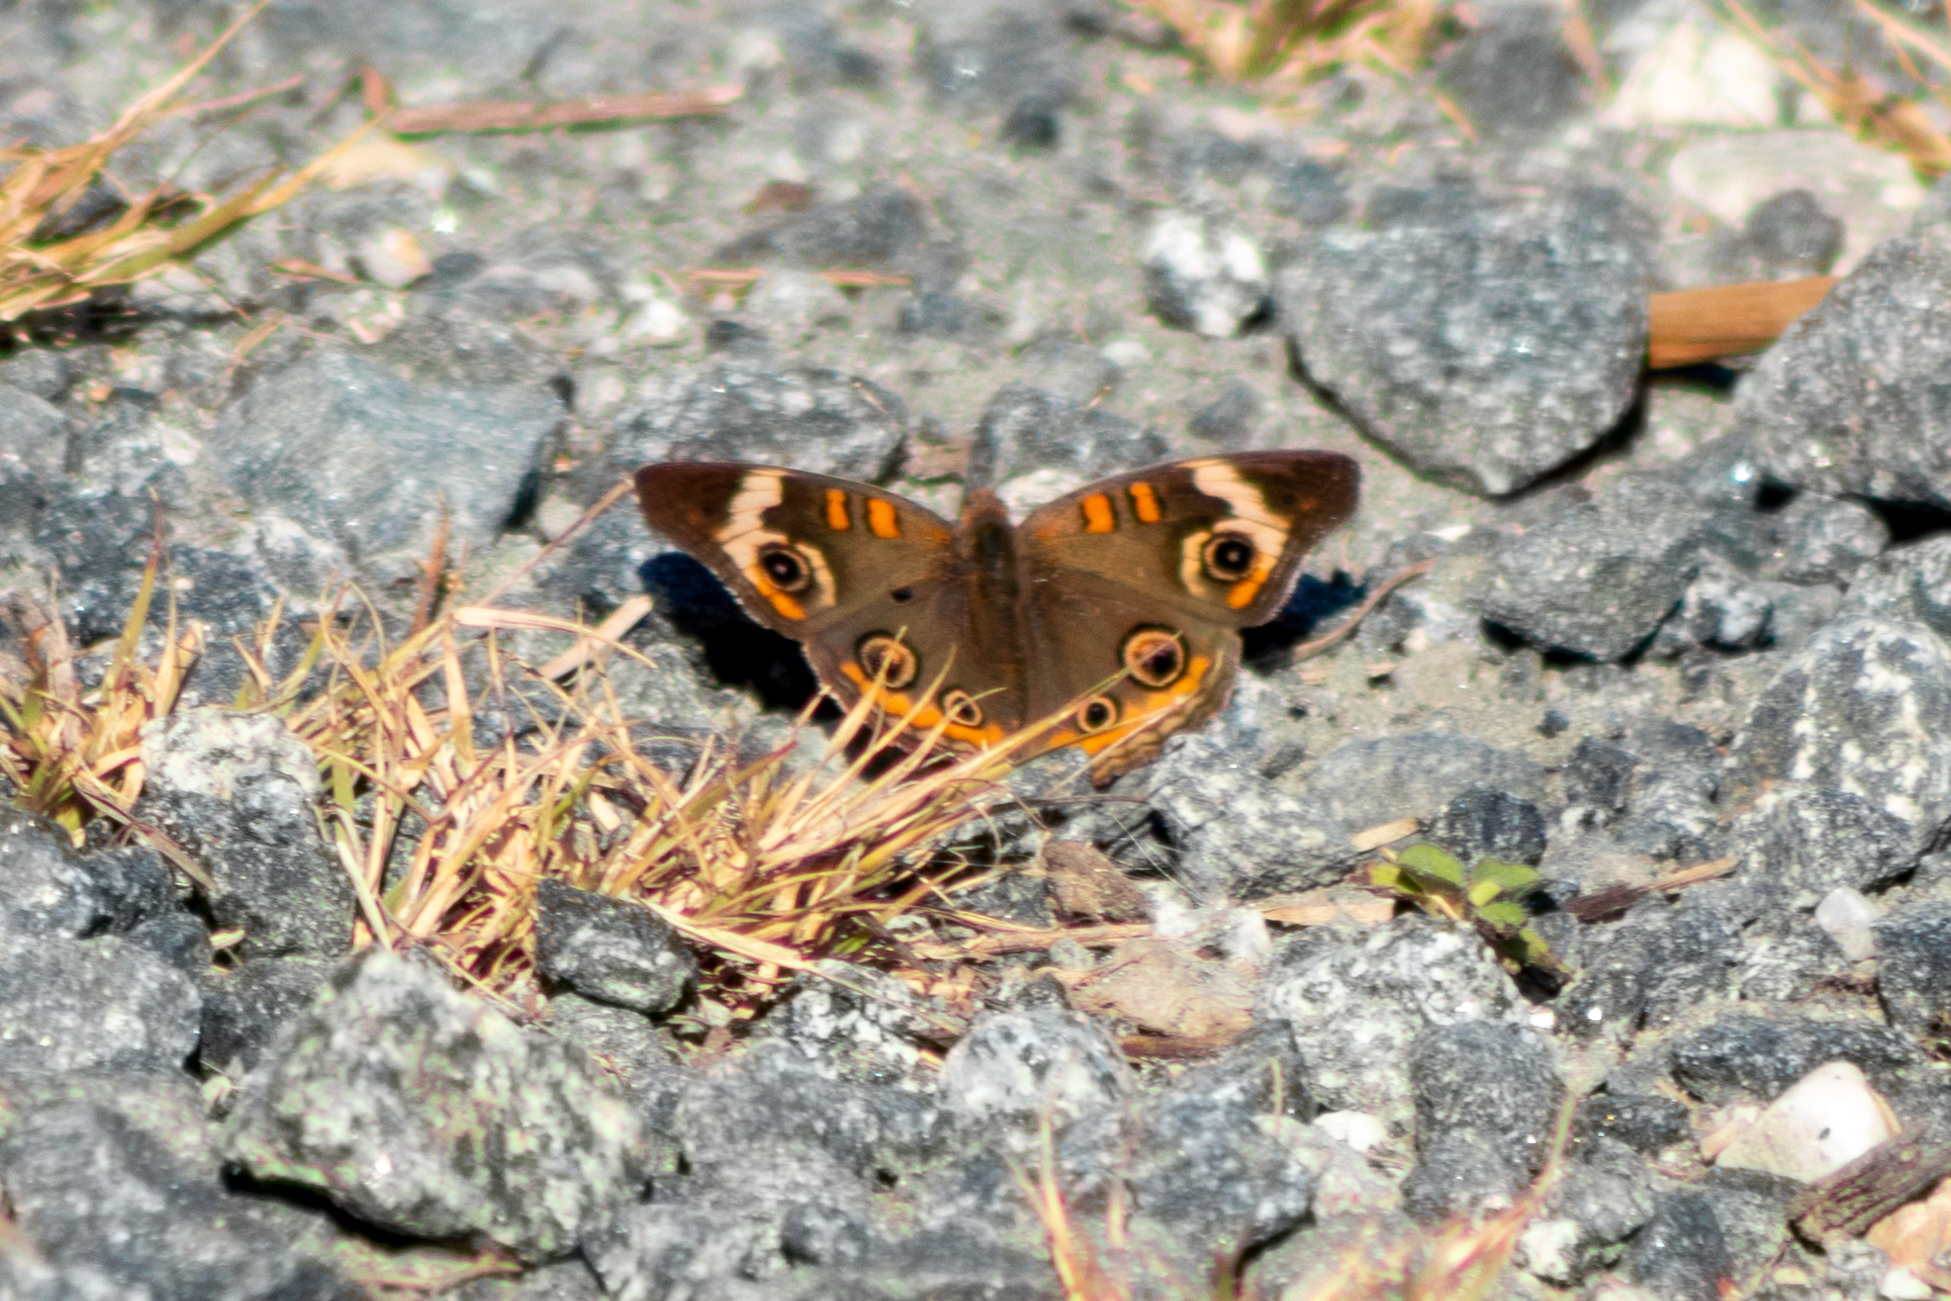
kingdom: Animalia
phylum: Arthropoda
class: Insecta
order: Lepidoptera
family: Nymphalidae
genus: Junonia
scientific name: Junonia coenia
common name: Common buckeye
